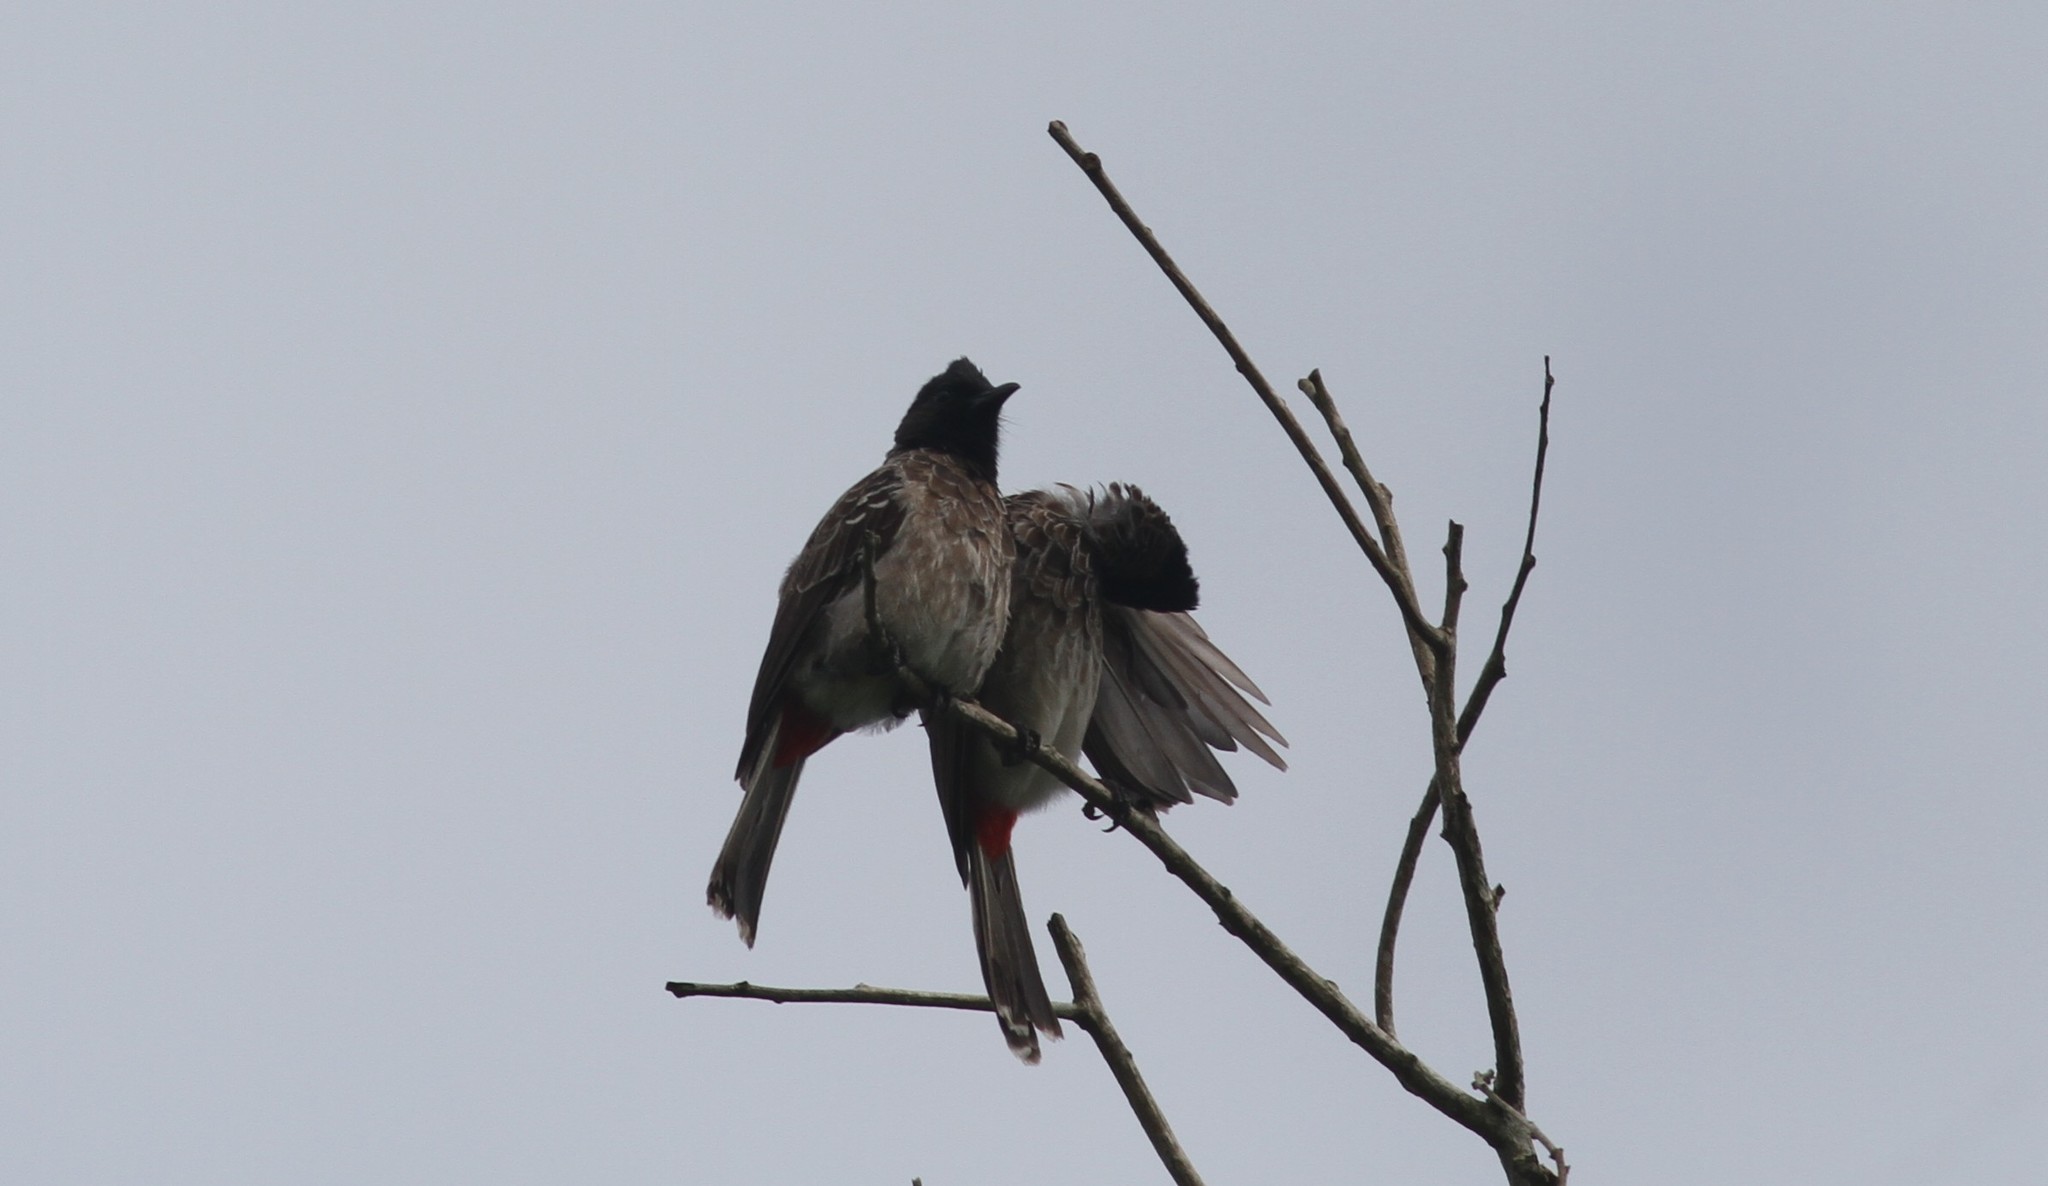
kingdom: Animalia
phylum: Chordata
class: Aves
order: Passeriformes
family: Pycnonotidae
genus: Pycnonotus
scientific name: Pycnonotus cafer
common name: Red-vented bulbul
